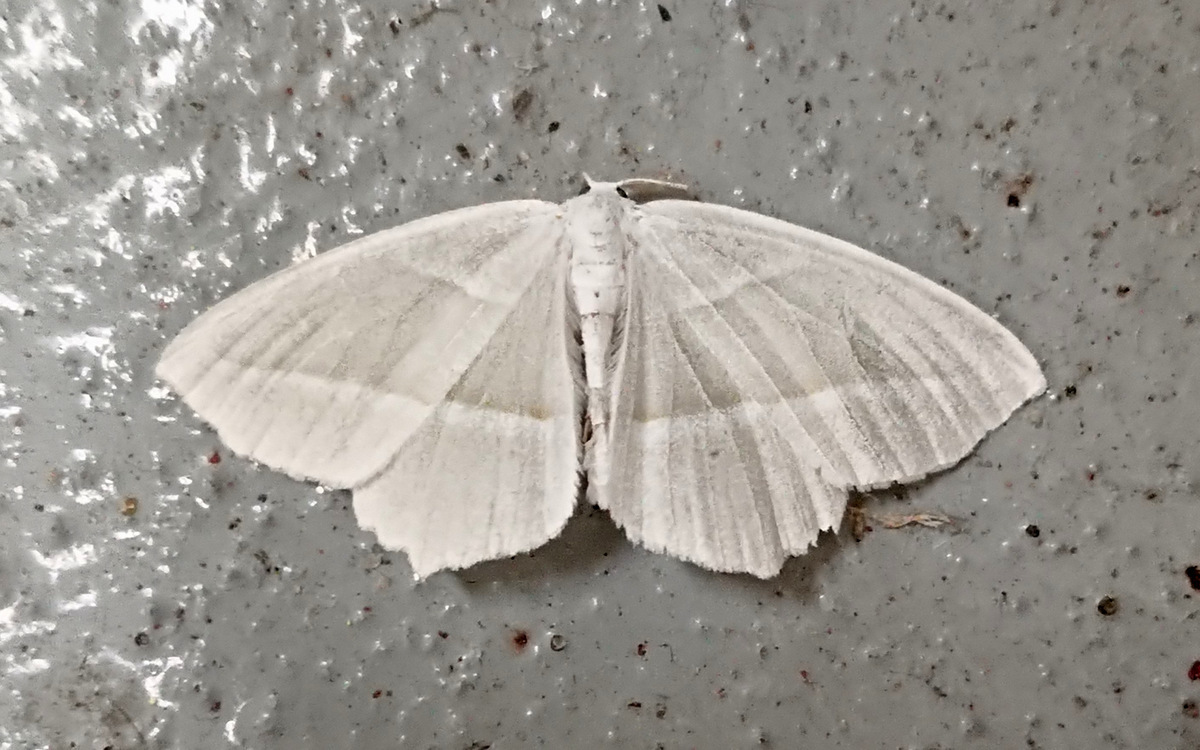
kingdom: Animalia
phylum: Arthropoda
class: Insecta
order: Lepidoptera
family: Geometridae
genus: Campaea
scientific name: Campaea perlata
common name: Fringed looper
